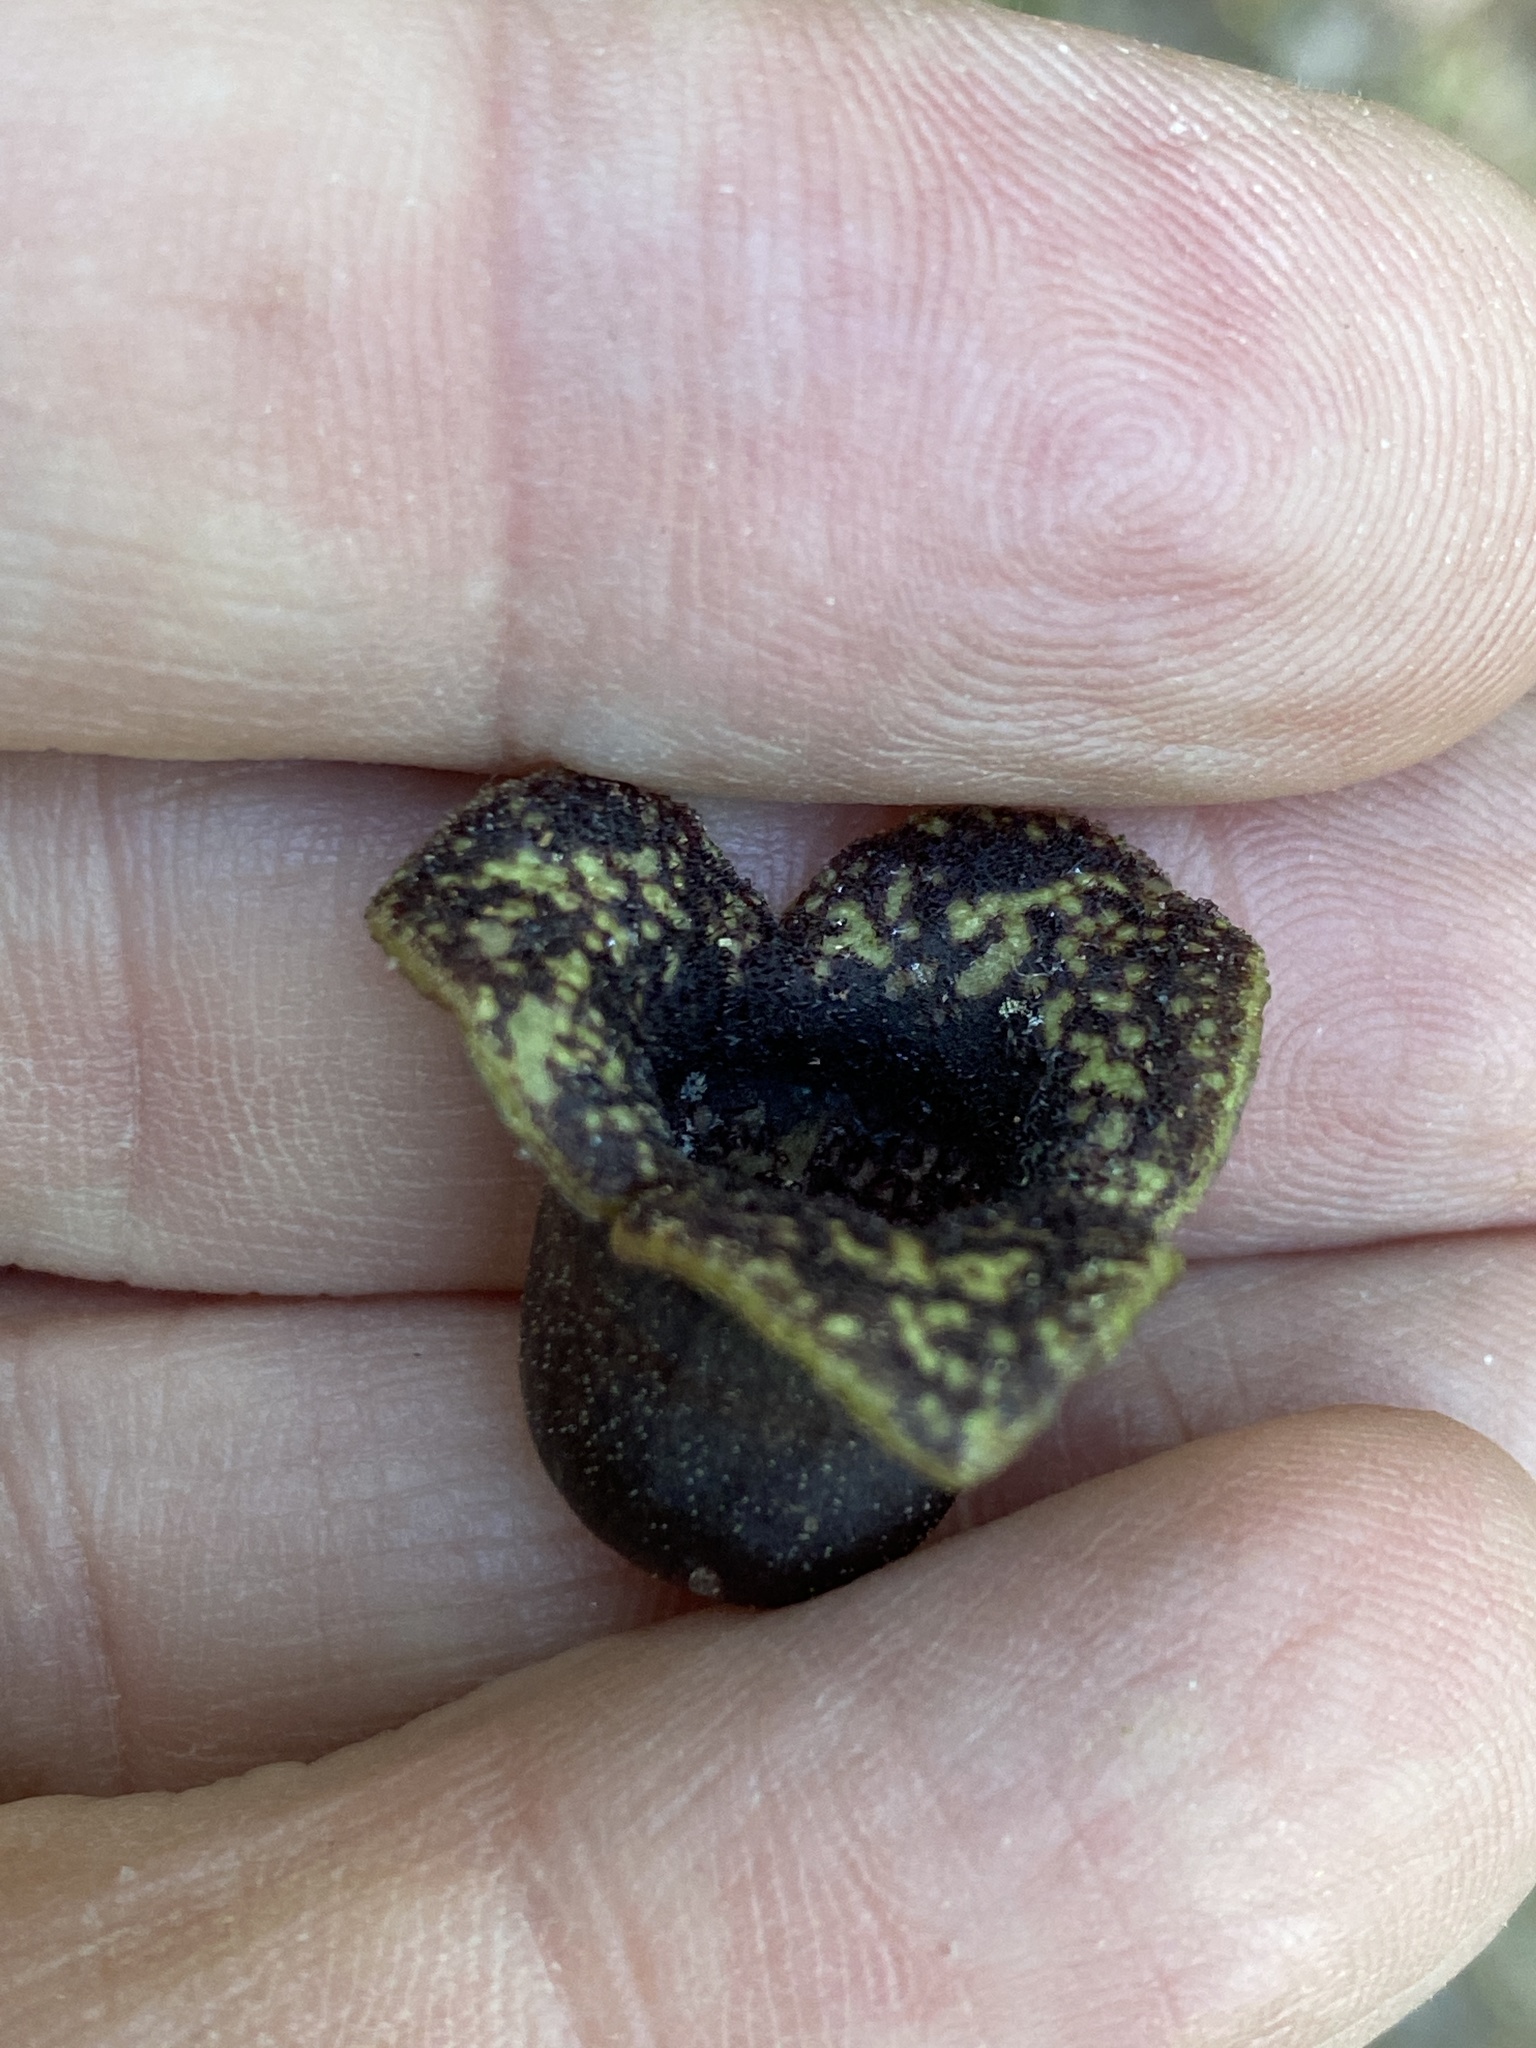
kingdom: Plantae
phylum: Tracheophyta
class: Magnoliopsida
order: Piperales
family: Aristolochiaceae
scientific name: Aristolochiaceae
